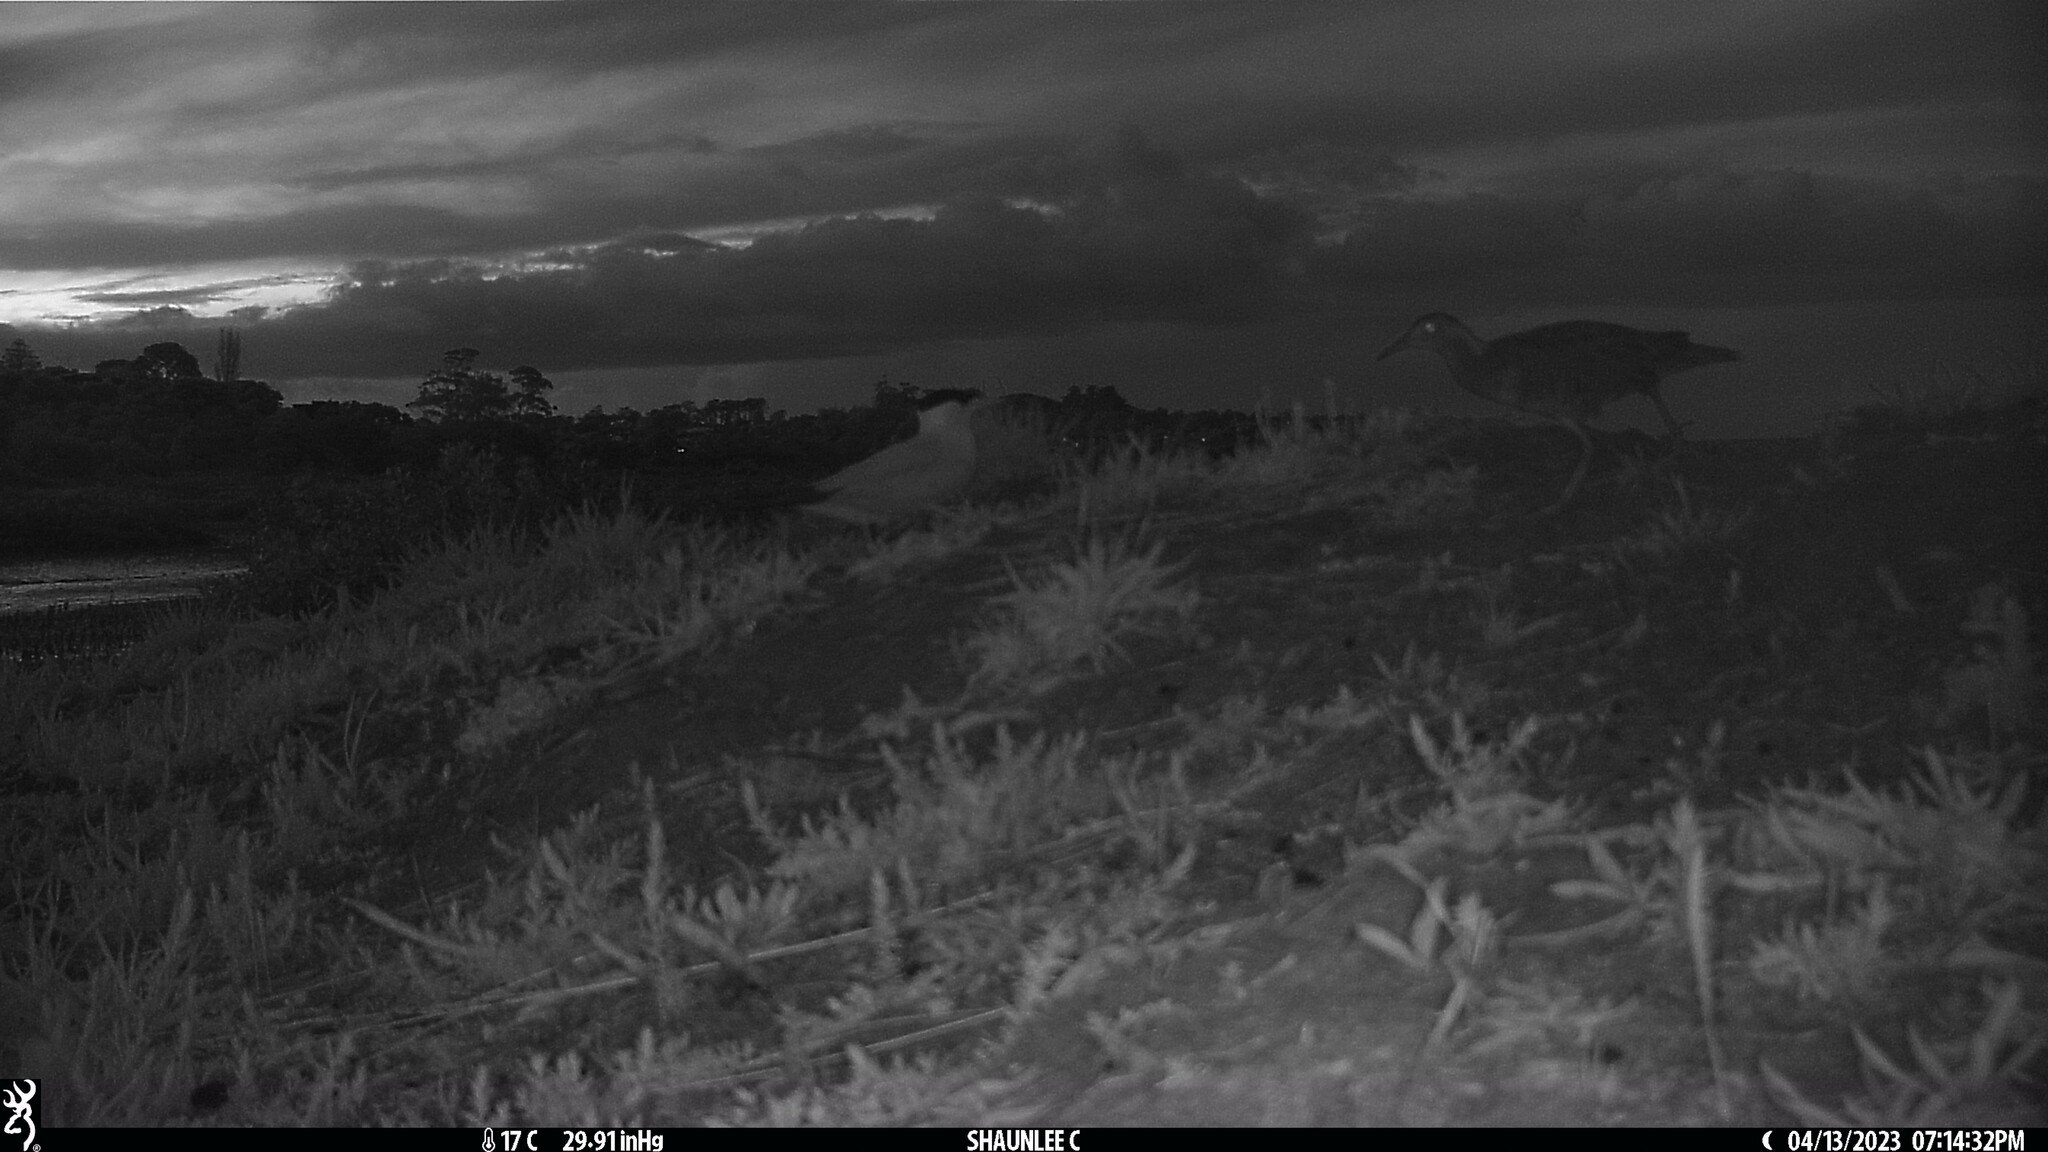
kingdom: Animalia
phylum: Chordata
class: Aves
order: Gruiformes
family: Rallidae
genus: Gallirallus
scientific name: Gallirallus philippensis
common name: Buff-banded rail
